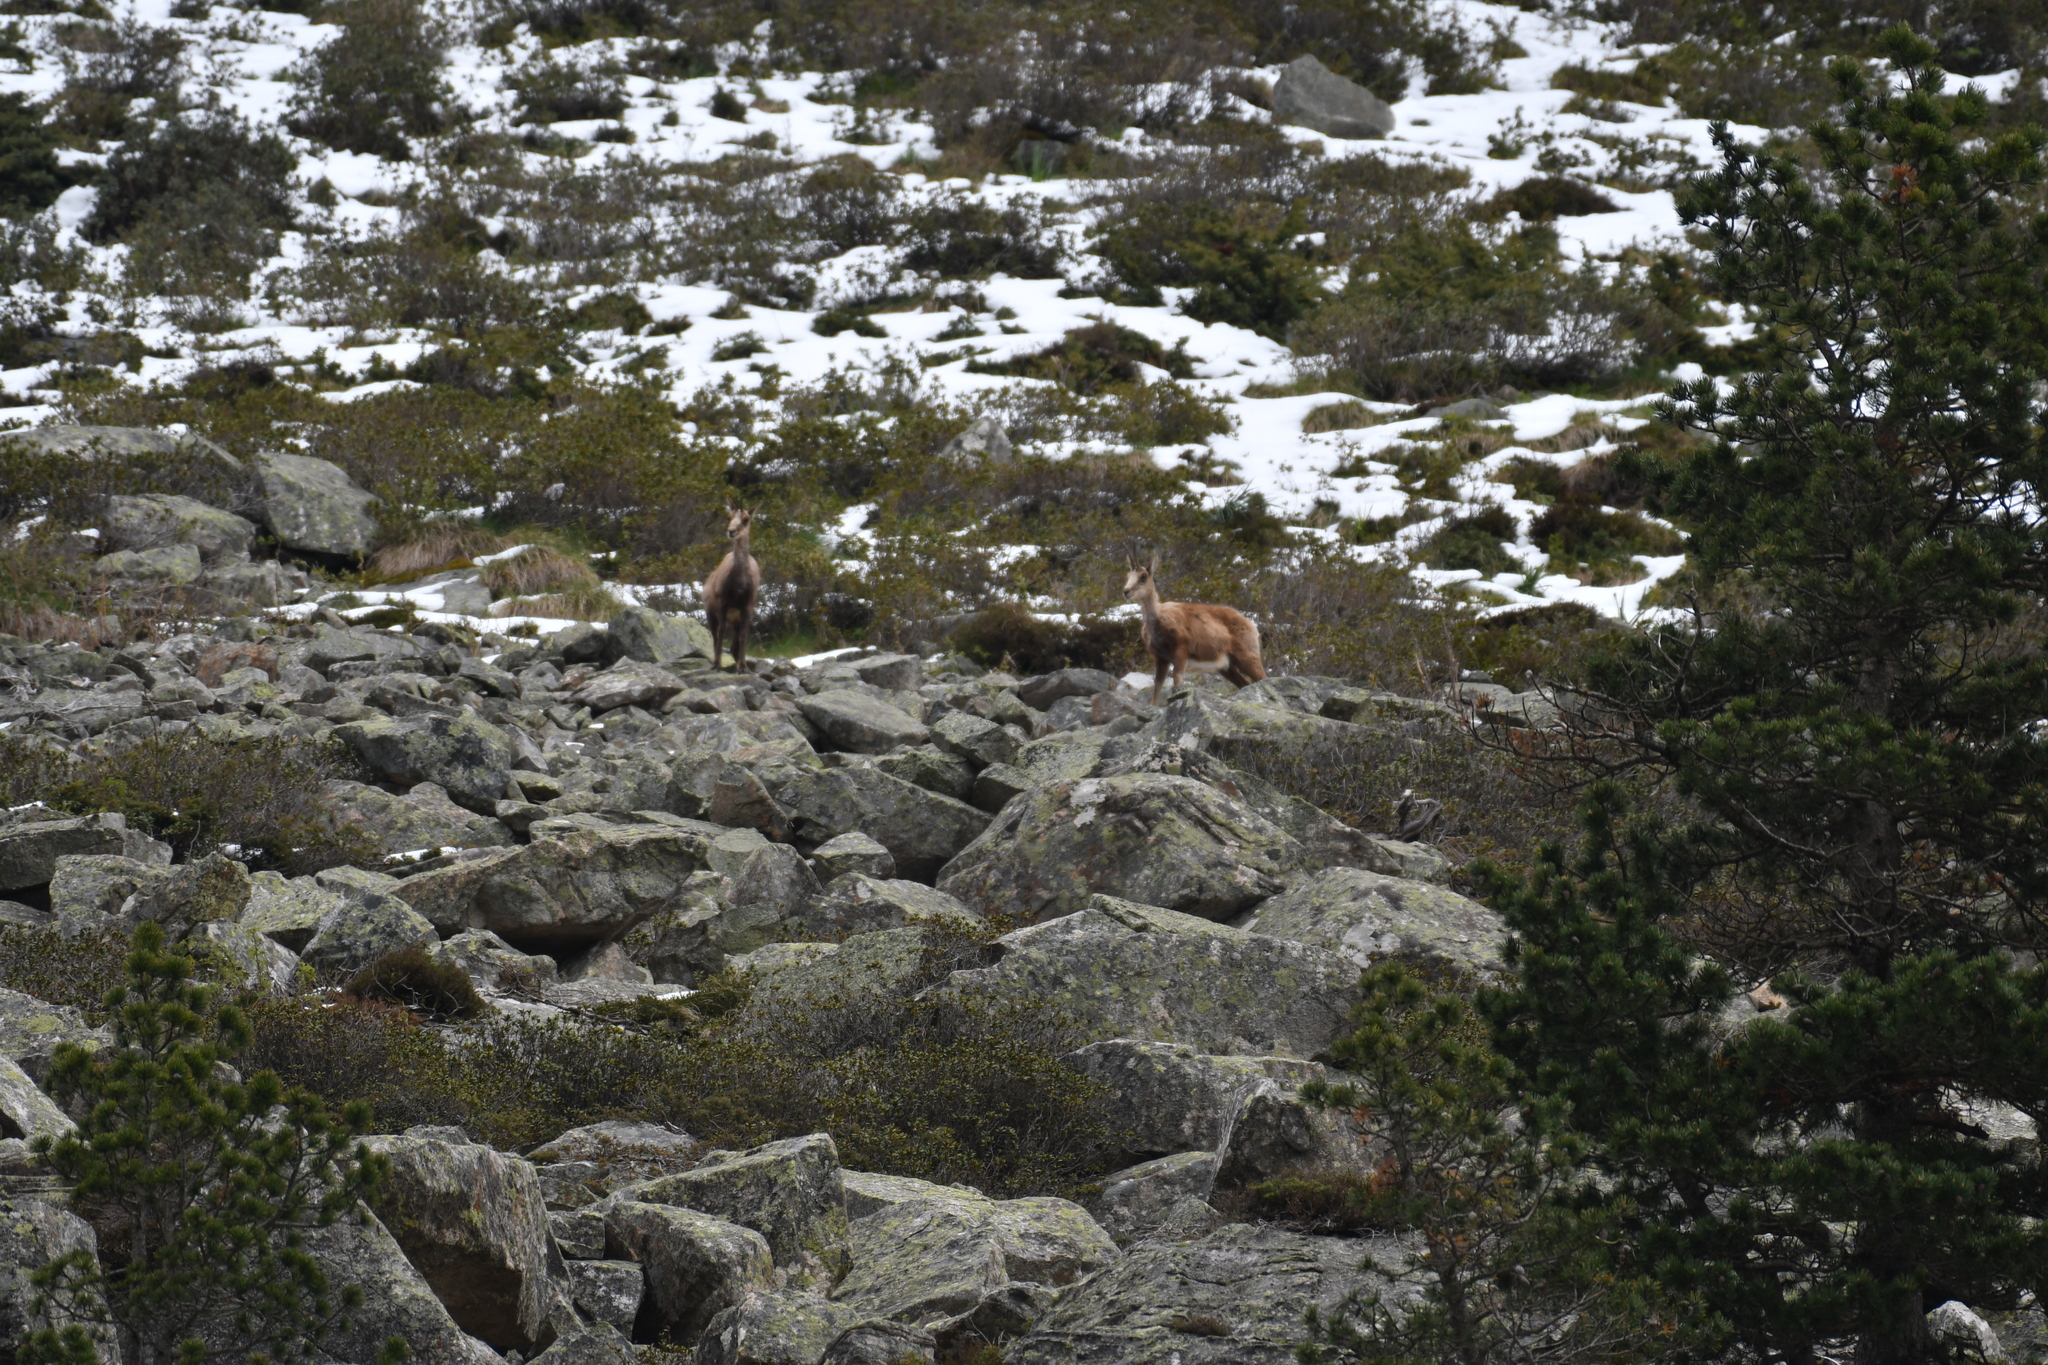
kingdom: Animalia
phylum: Chordata
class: Mammalia
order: Artiodactyla
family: Bovidae
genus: Rupicapra
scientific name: Rupicapra pyrenaica
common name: Pyrenean chamois
